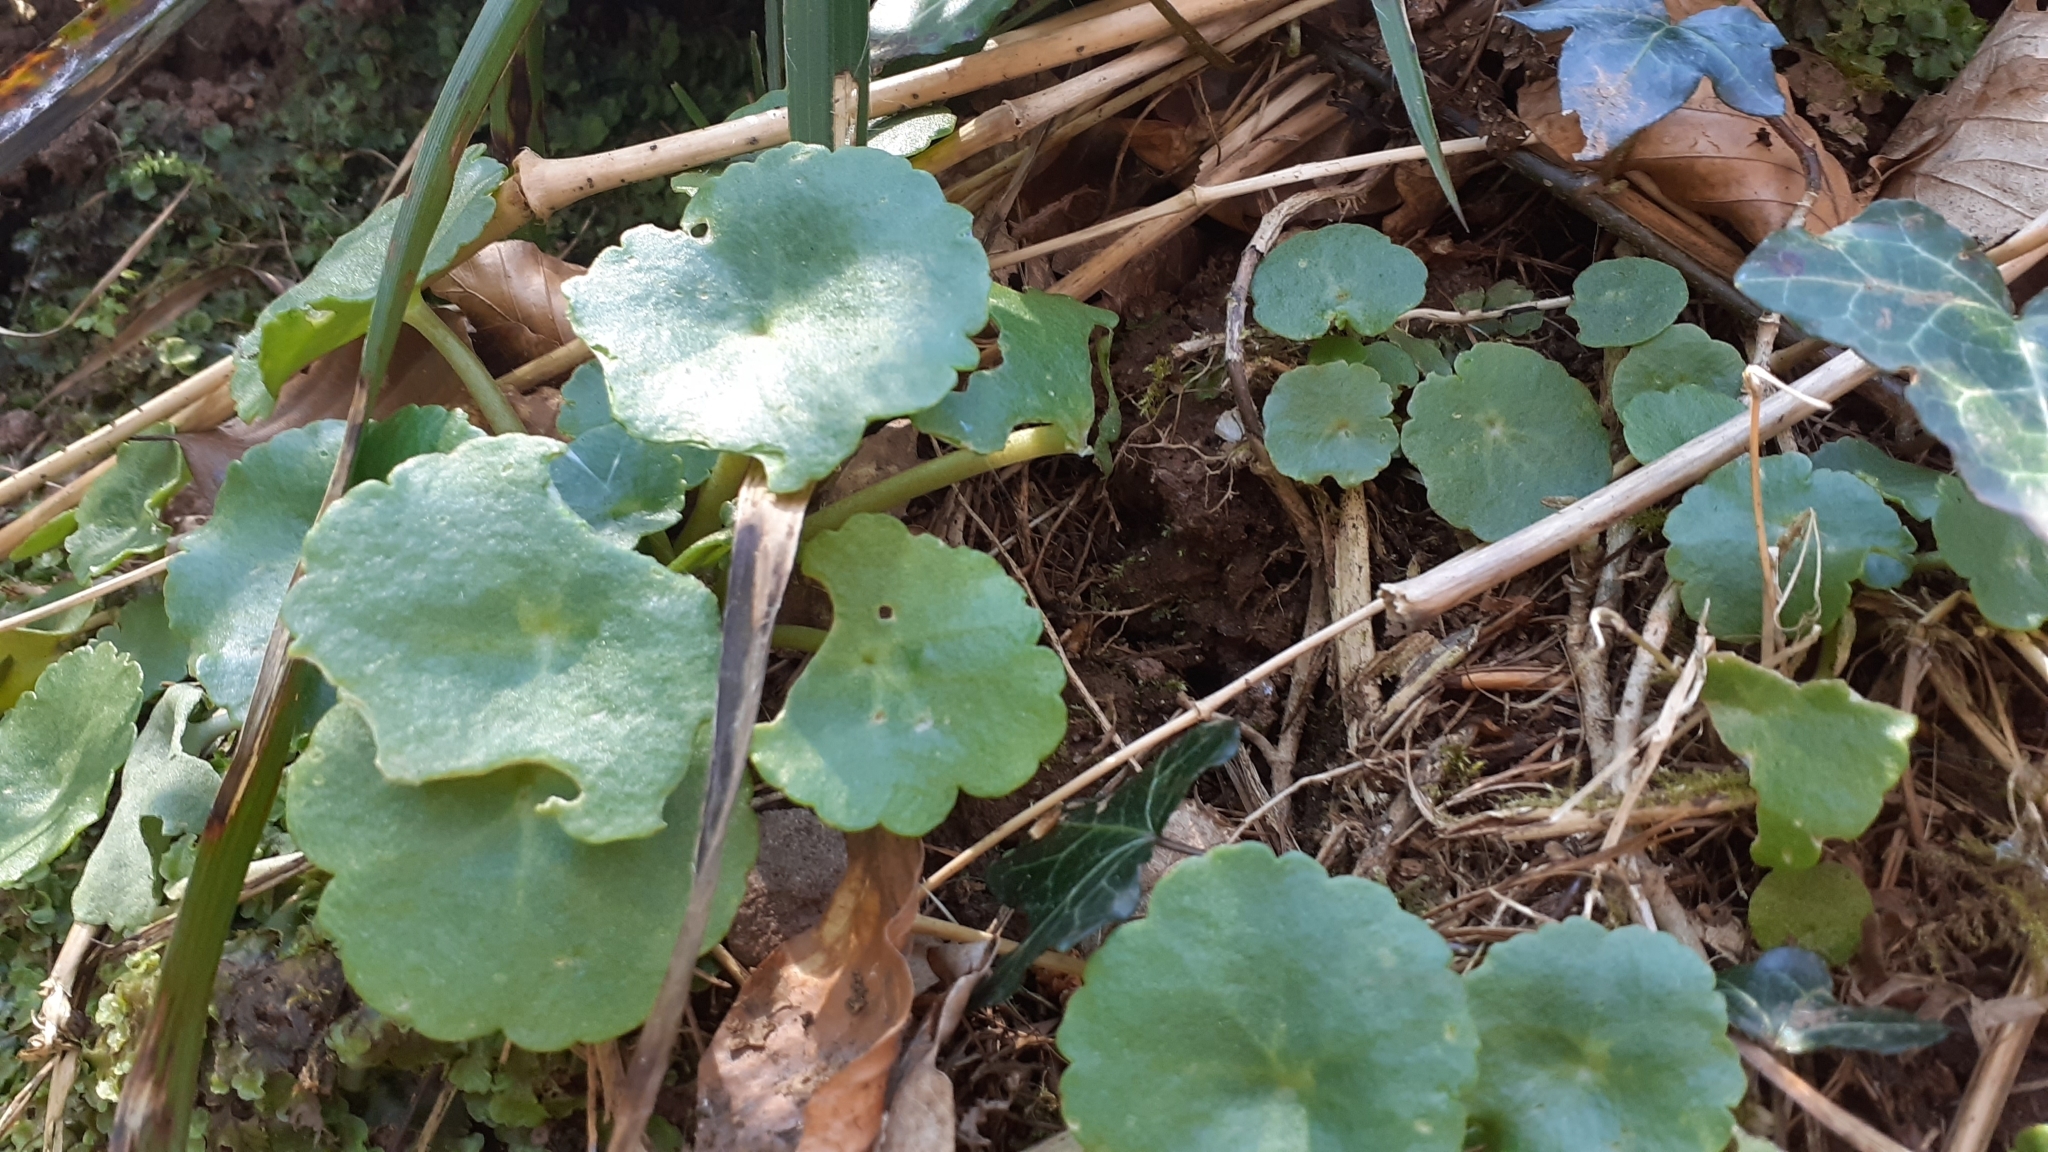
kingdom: Plantae
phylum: Tracheophyta
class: Magnoliopsida
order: Saxifragales
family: Crassulaceae
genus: Umbilicus
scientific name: Umbilicus rupestris
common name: Navelwort
